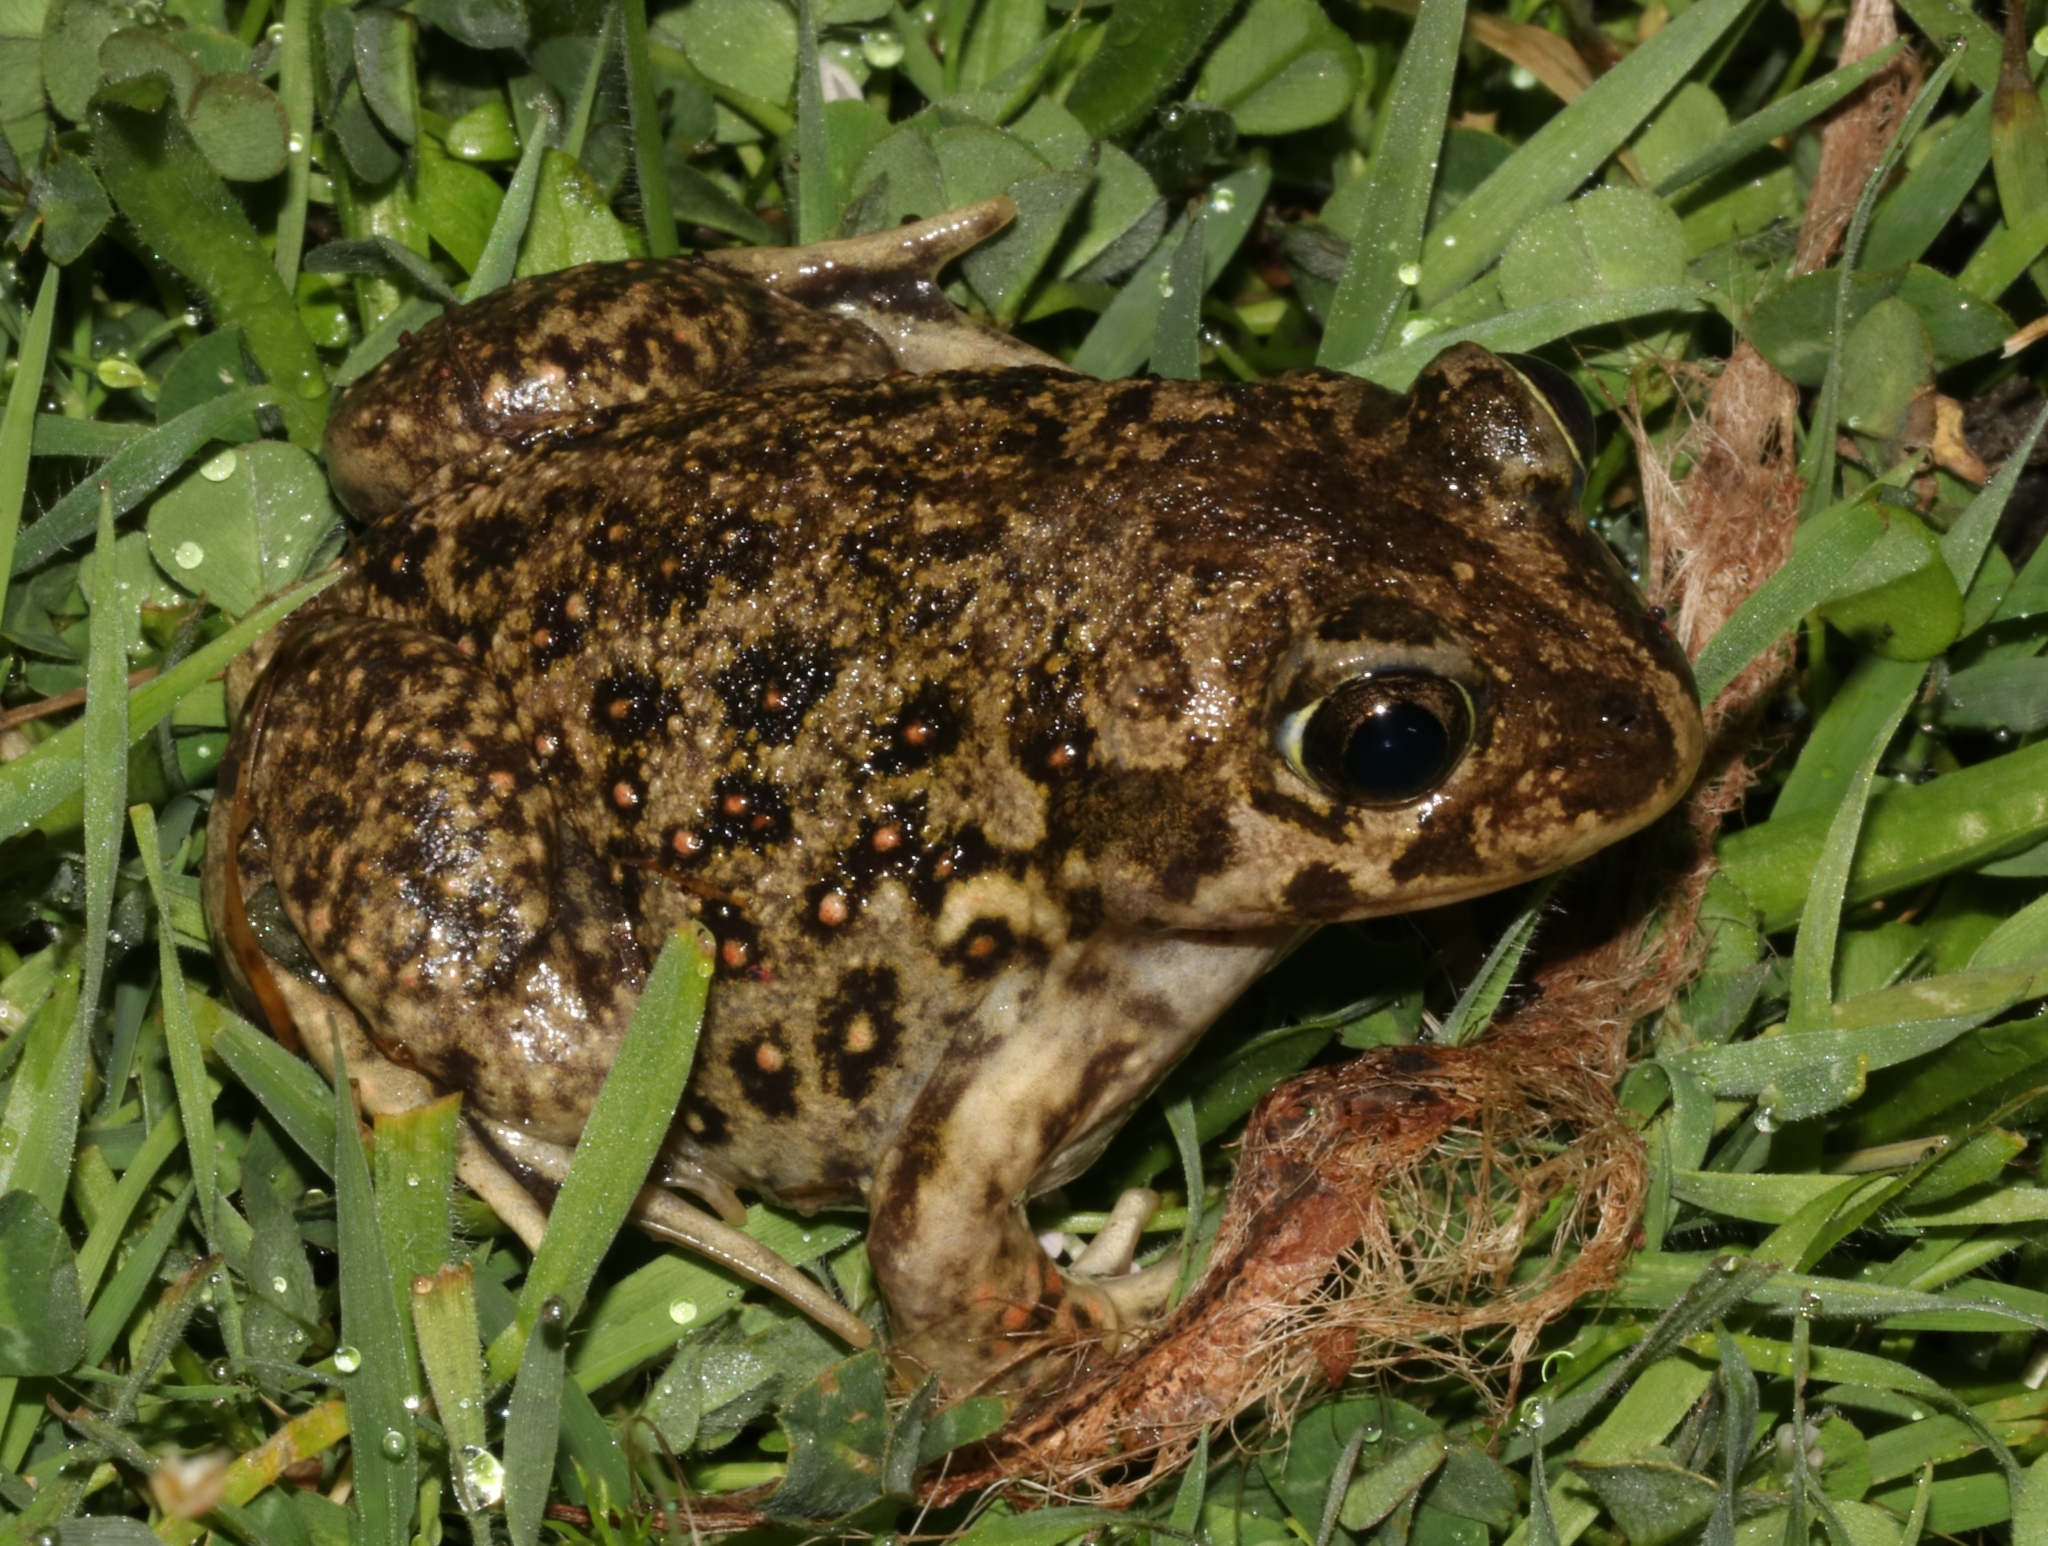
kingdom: Animalia
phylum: Chordata
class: Amphibia
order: Anura
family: Pelobatidae
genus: Pelobates
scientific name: Pelobates balcanicus
